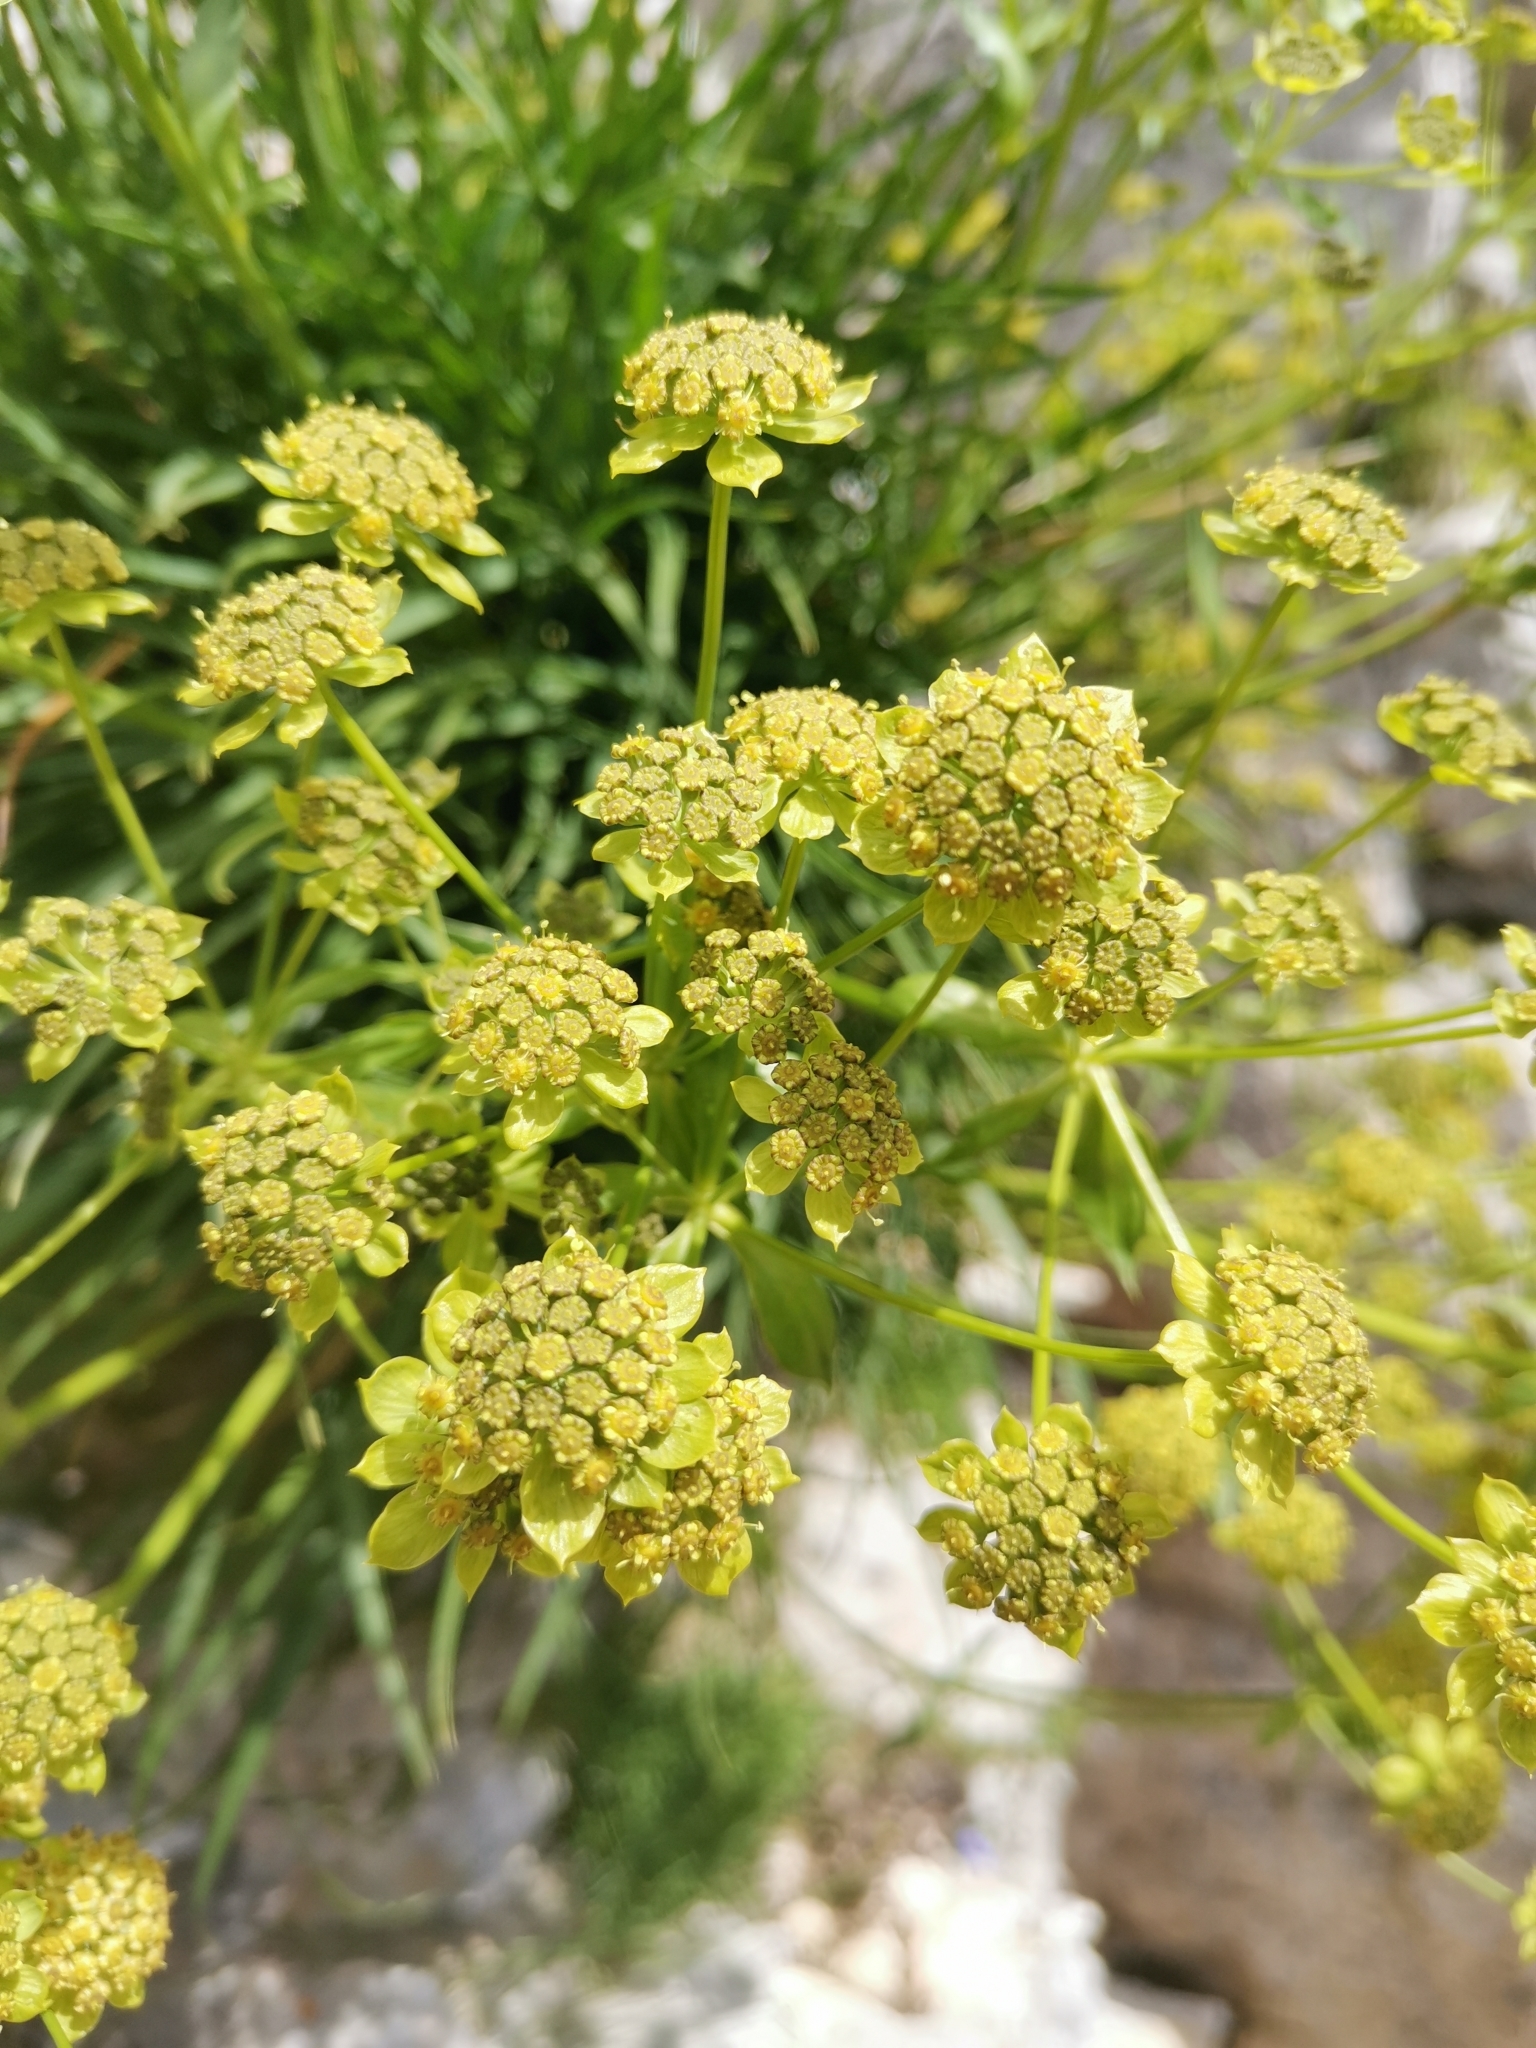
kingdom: Plantae
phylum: Tracheophyta
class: Magnoliopsida
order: Apiales
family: Apiaceae
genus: Bupleurum
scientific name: Bupleurum petraeum
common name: Rock hare's-ear
